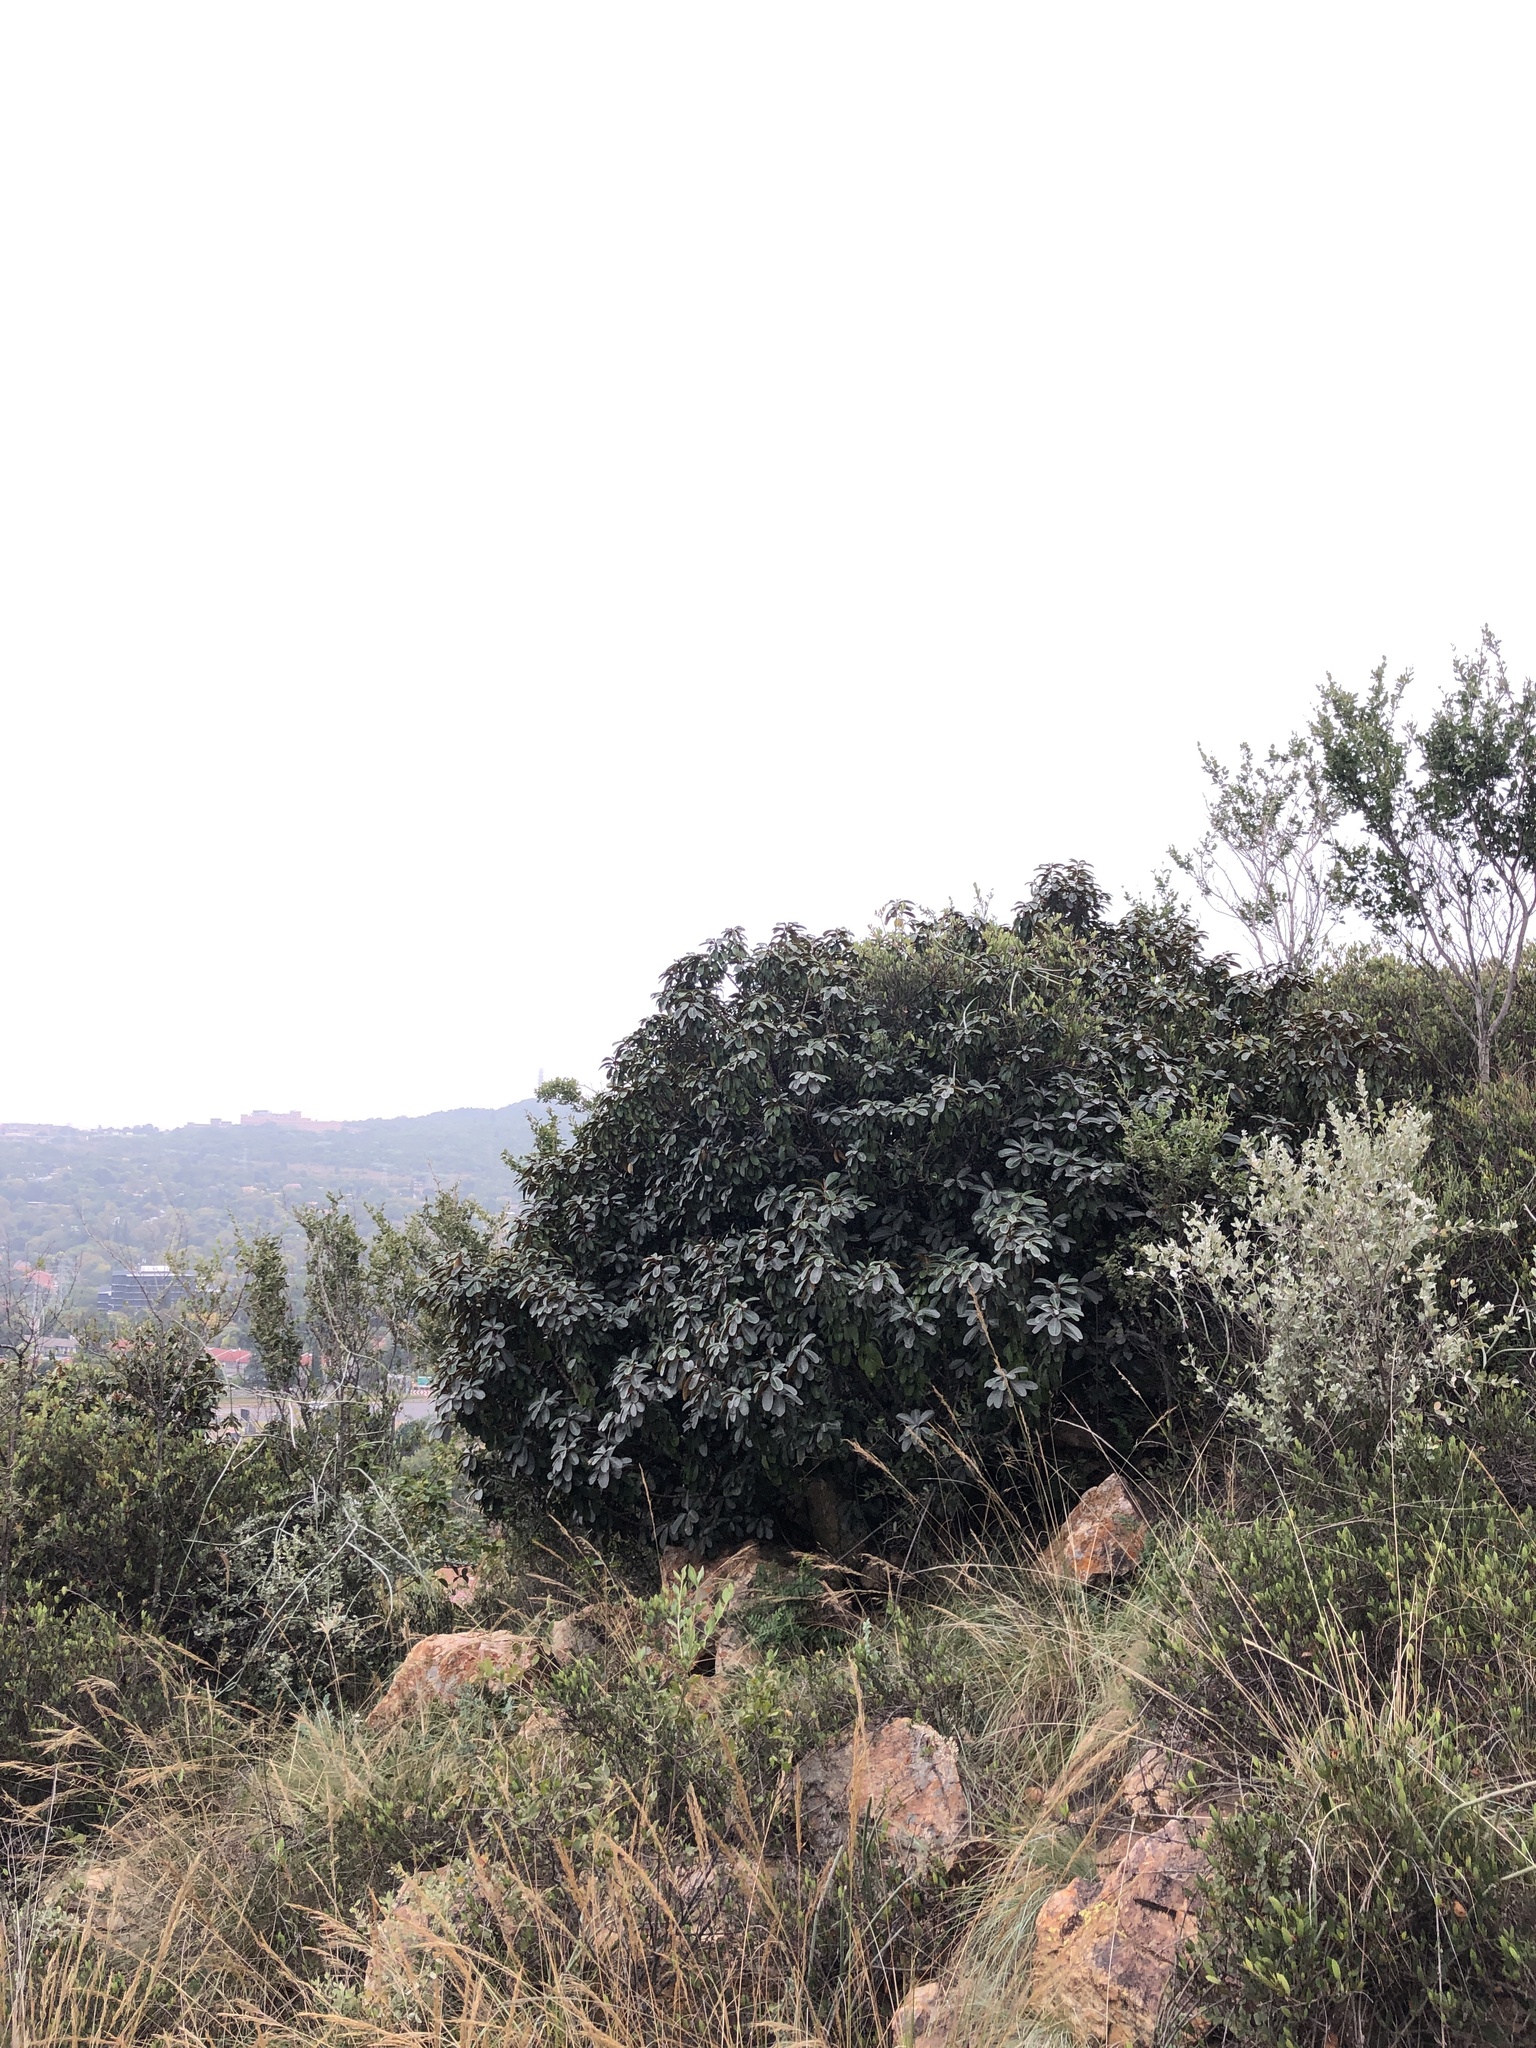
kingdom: Plantae
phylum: Tracheophyta
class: Magnoliopsida
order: Ericales
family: Sapotaceae
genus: Englerophytum
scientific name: Englerophytum magalismontanum
